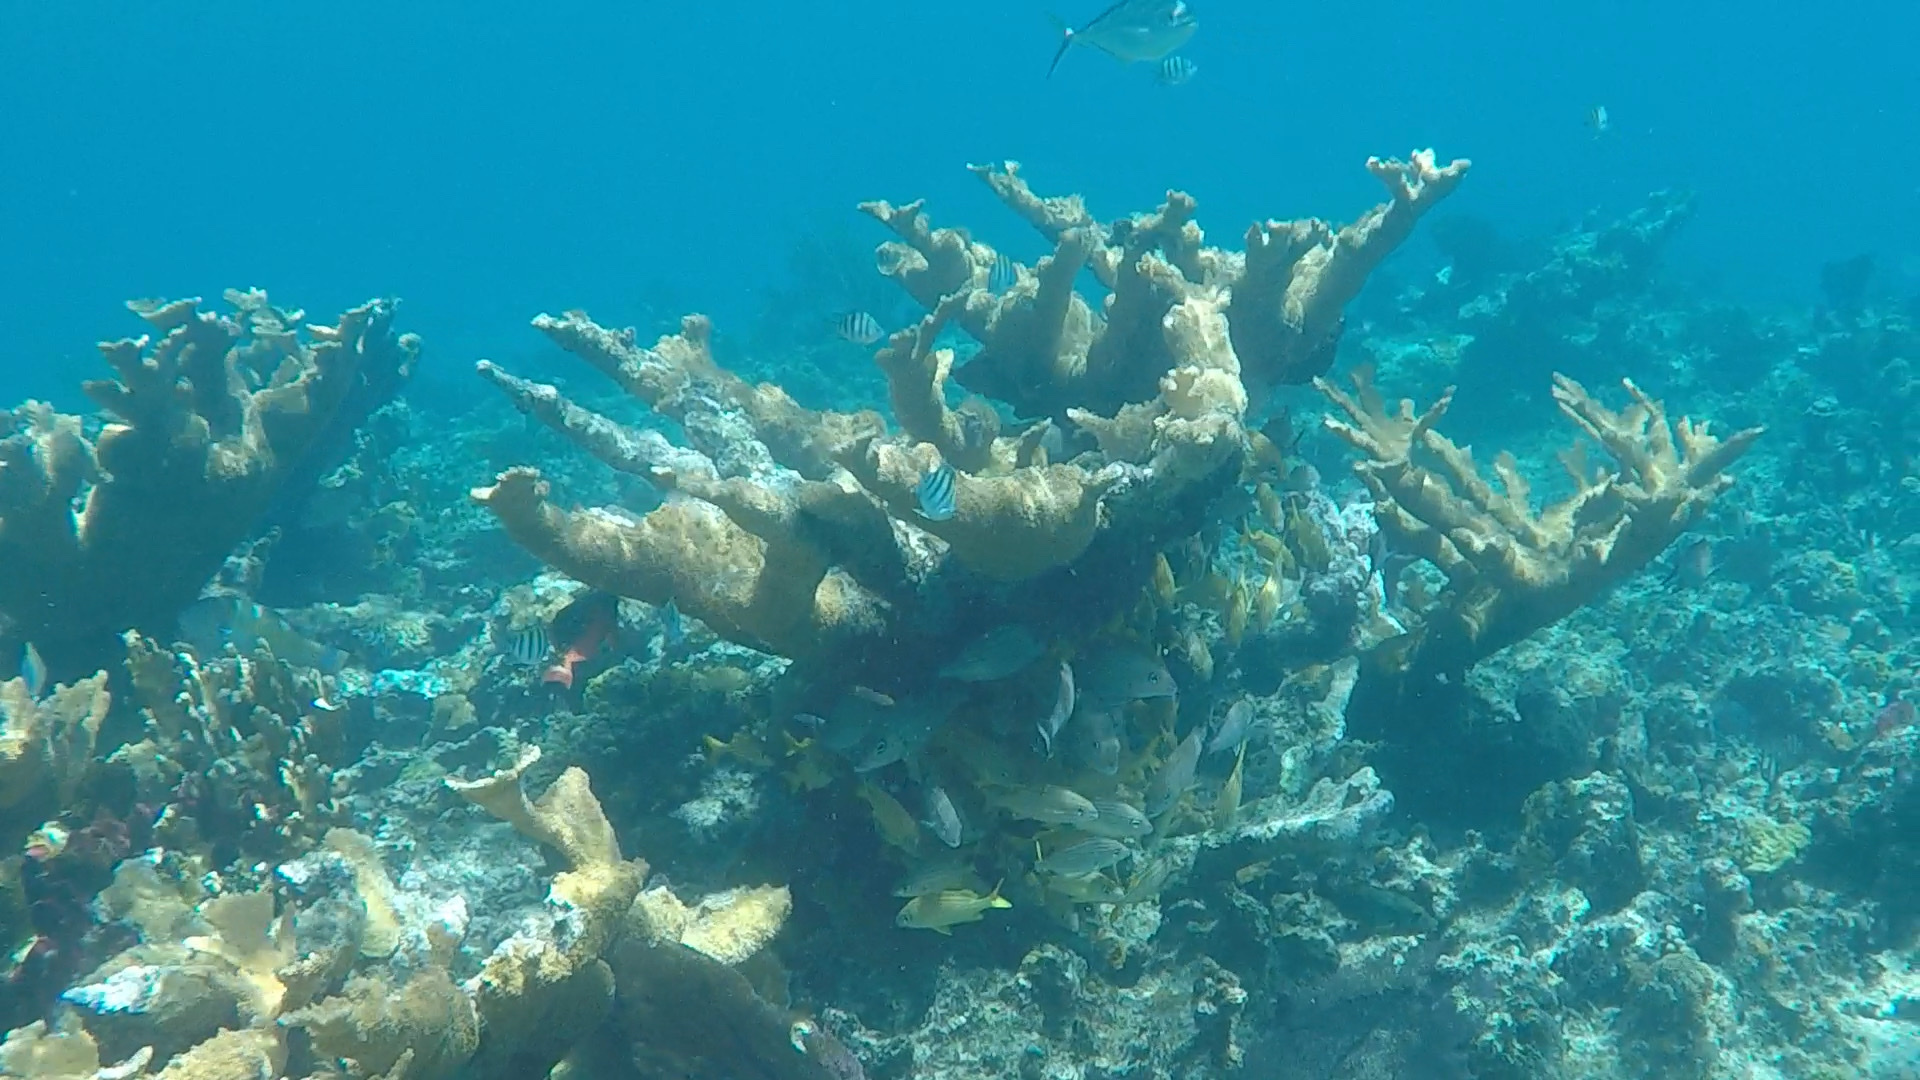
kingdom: Animalia
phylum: Cnidaria
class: Anthozoa
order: Scleractinia
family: Acroporidae
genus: Acropora
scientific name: Acropora palmata
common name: Elkhorn coral
